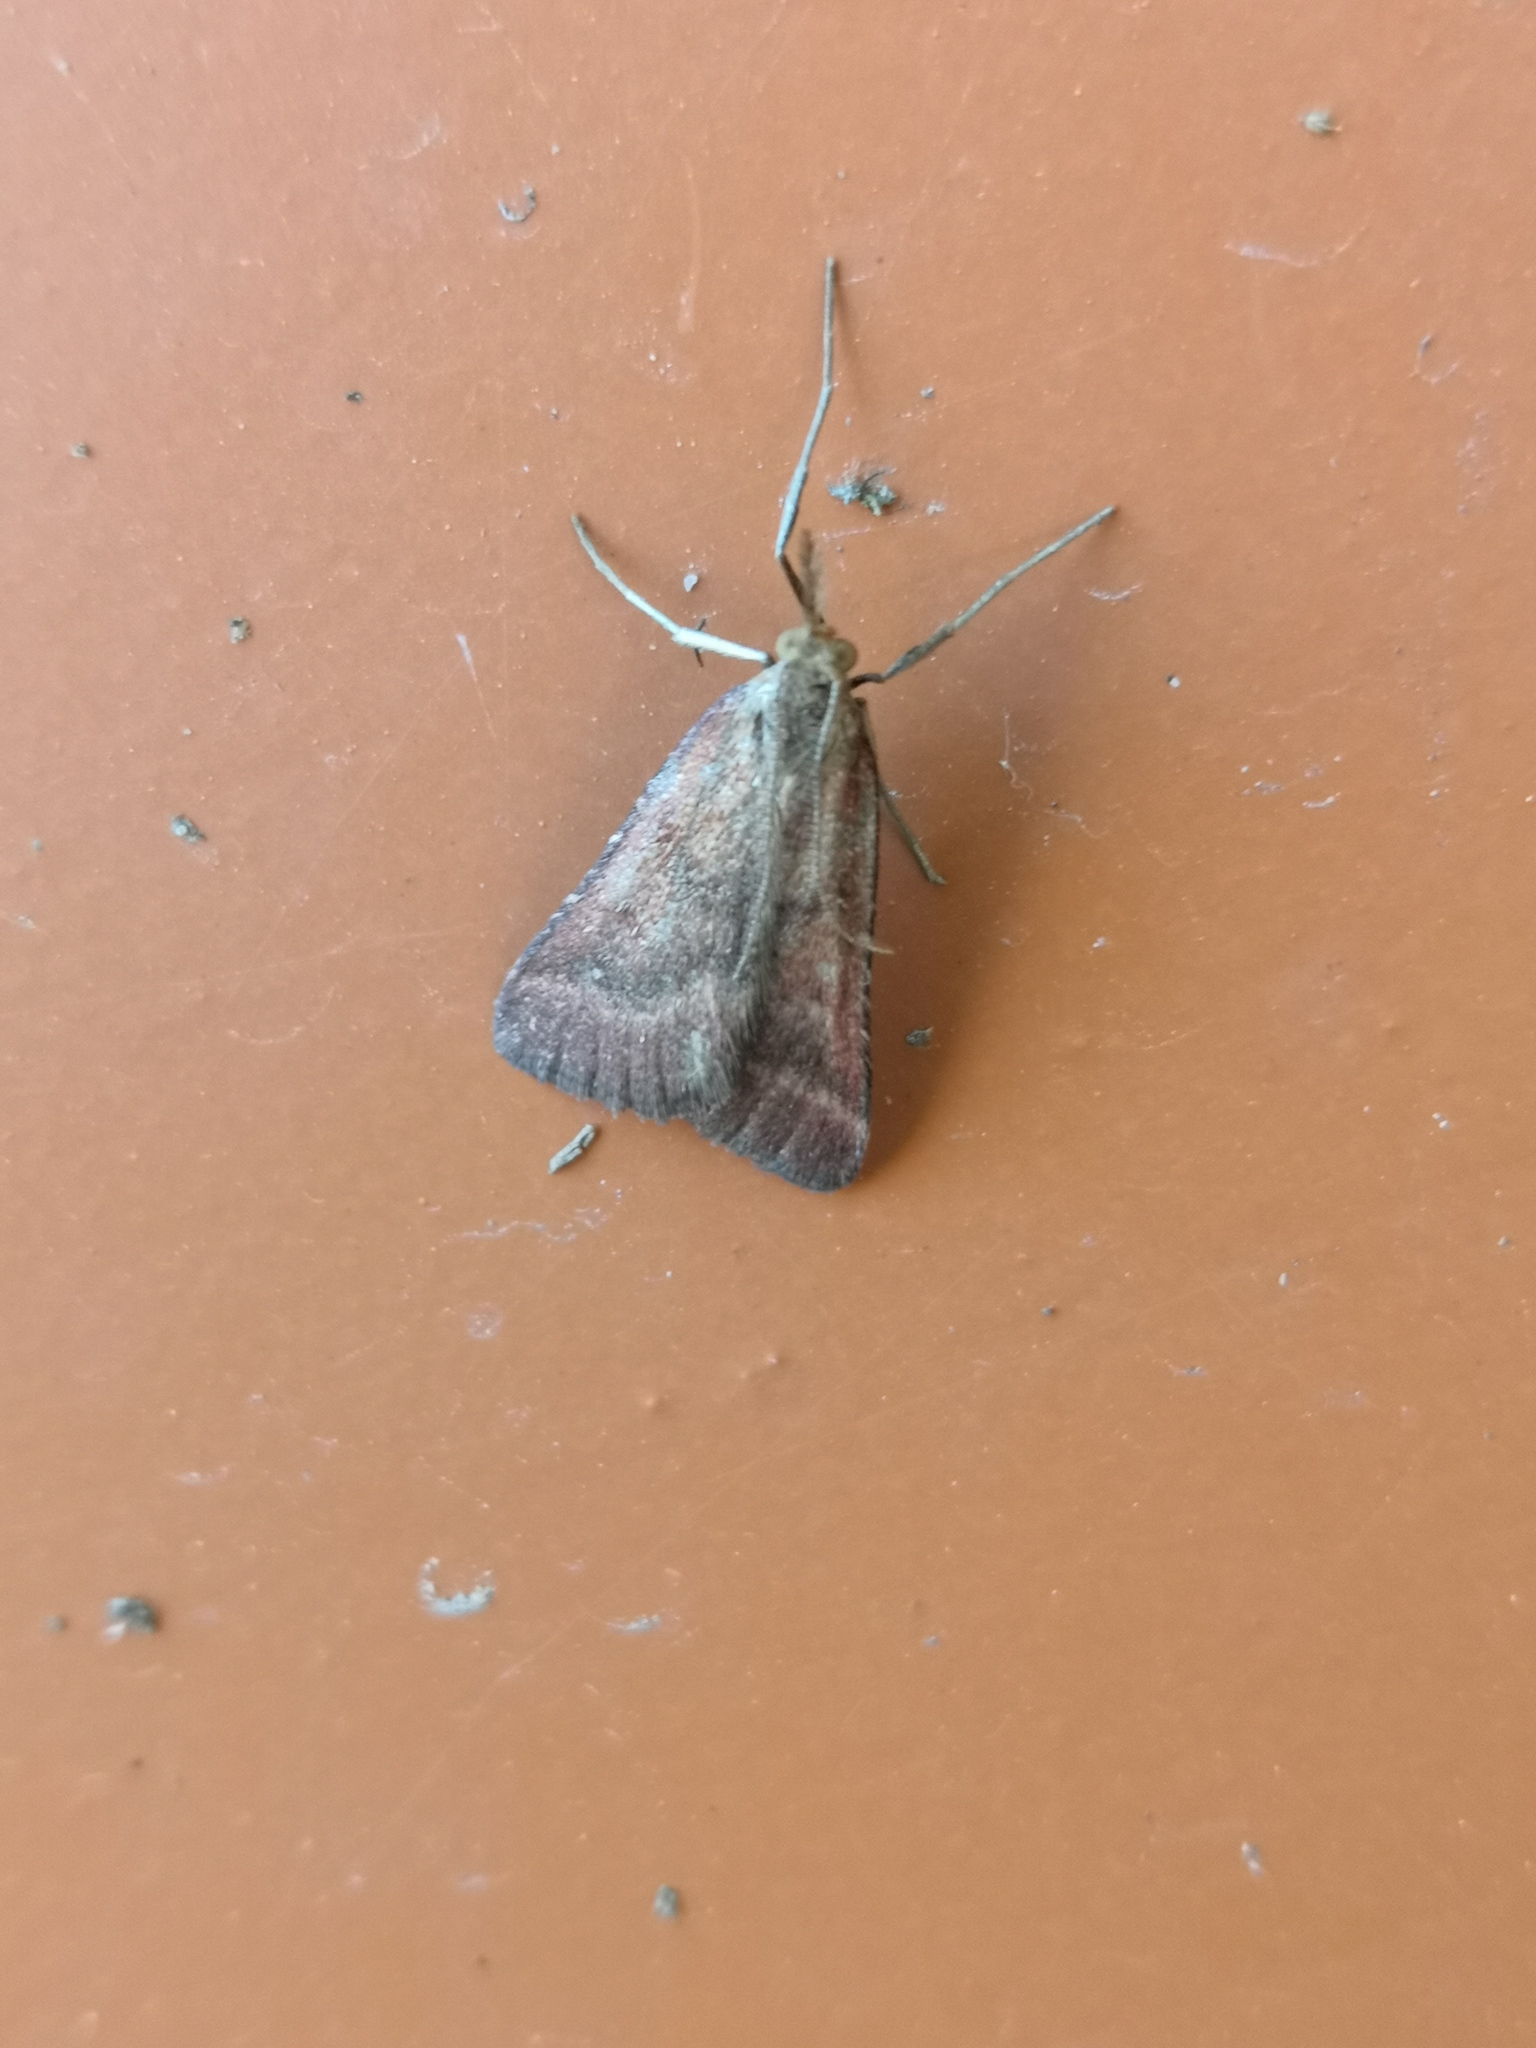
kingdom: Animalia
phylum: Arthropoda
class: Insecta
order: Lepidoptera
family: Pyralidae
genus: Synaphe
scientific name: Synaphe punctalis
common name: Long-legged tabby
